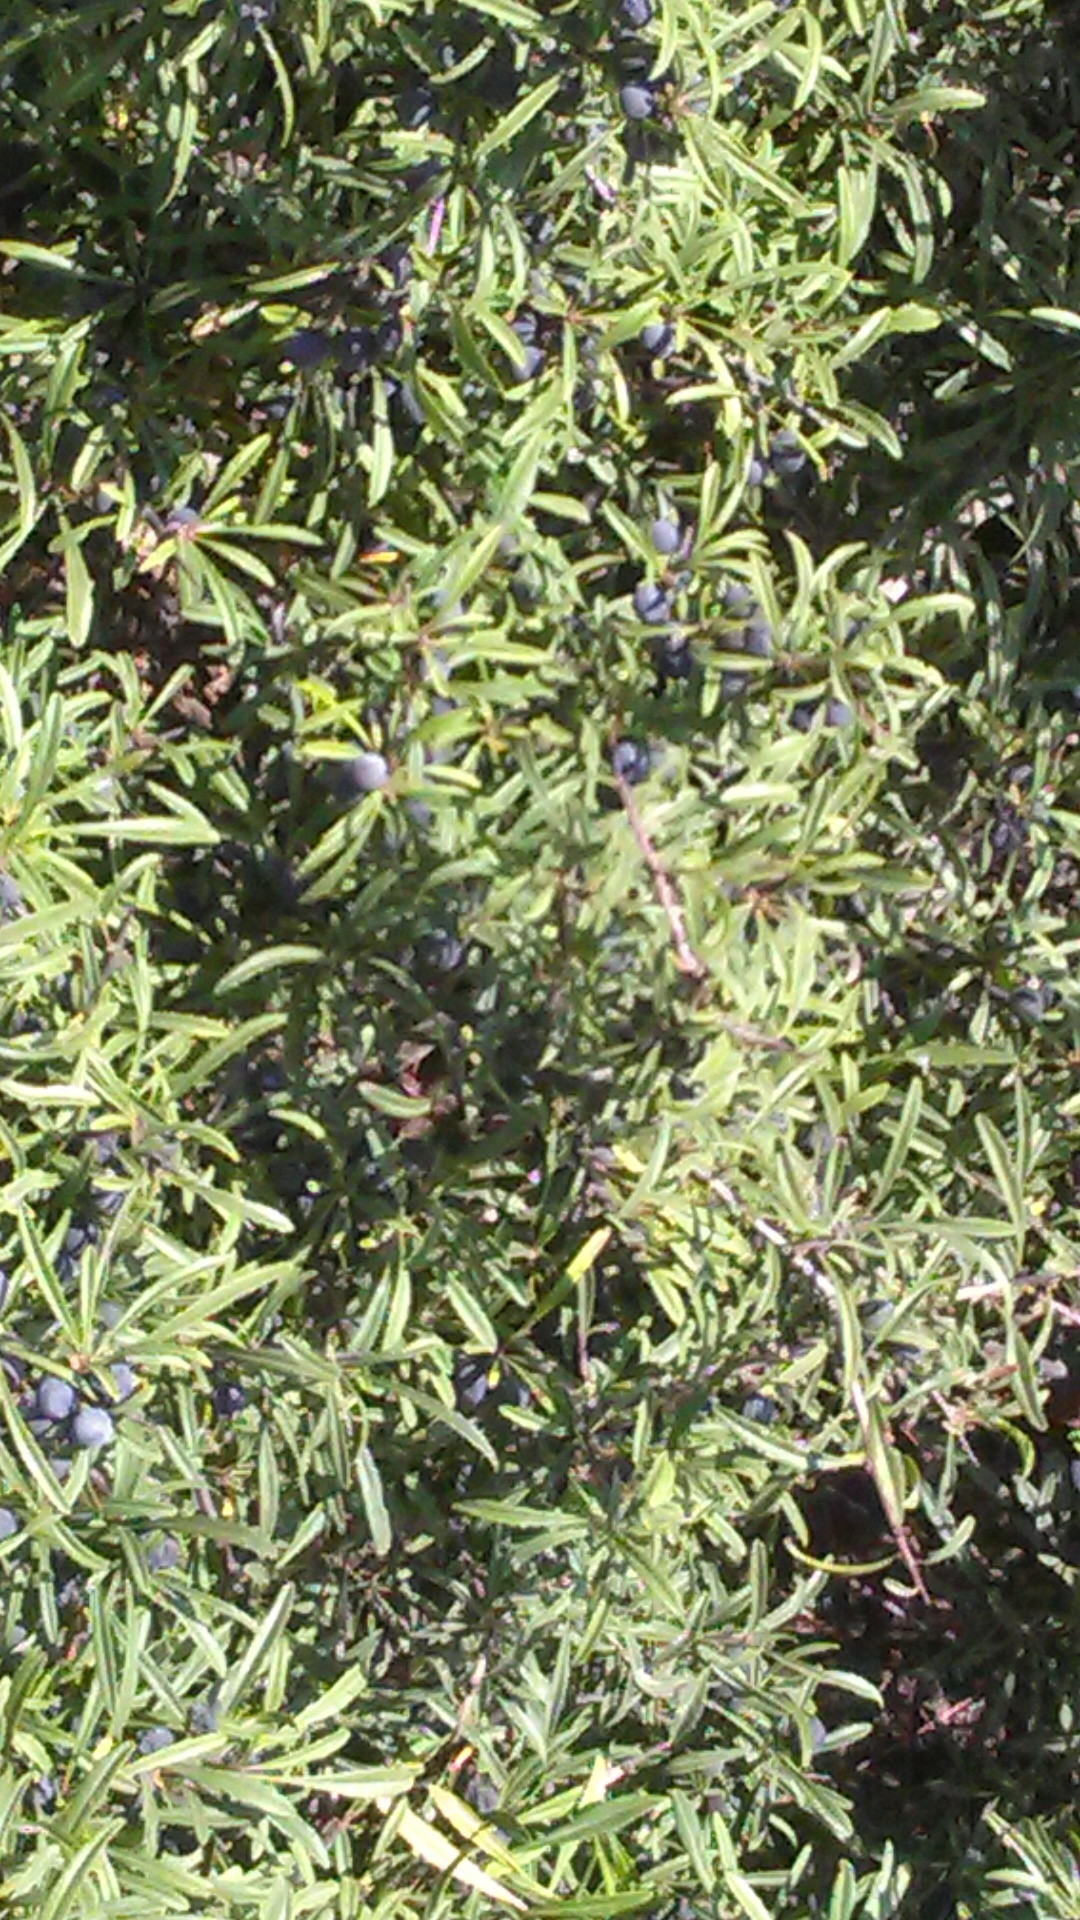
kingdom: Plantae
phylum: Tracheophyta
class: Magnoliopsida
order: Rosales
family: Rhamnaceae
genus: Rhamnus
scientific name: Rhamnus erythroxyloides
